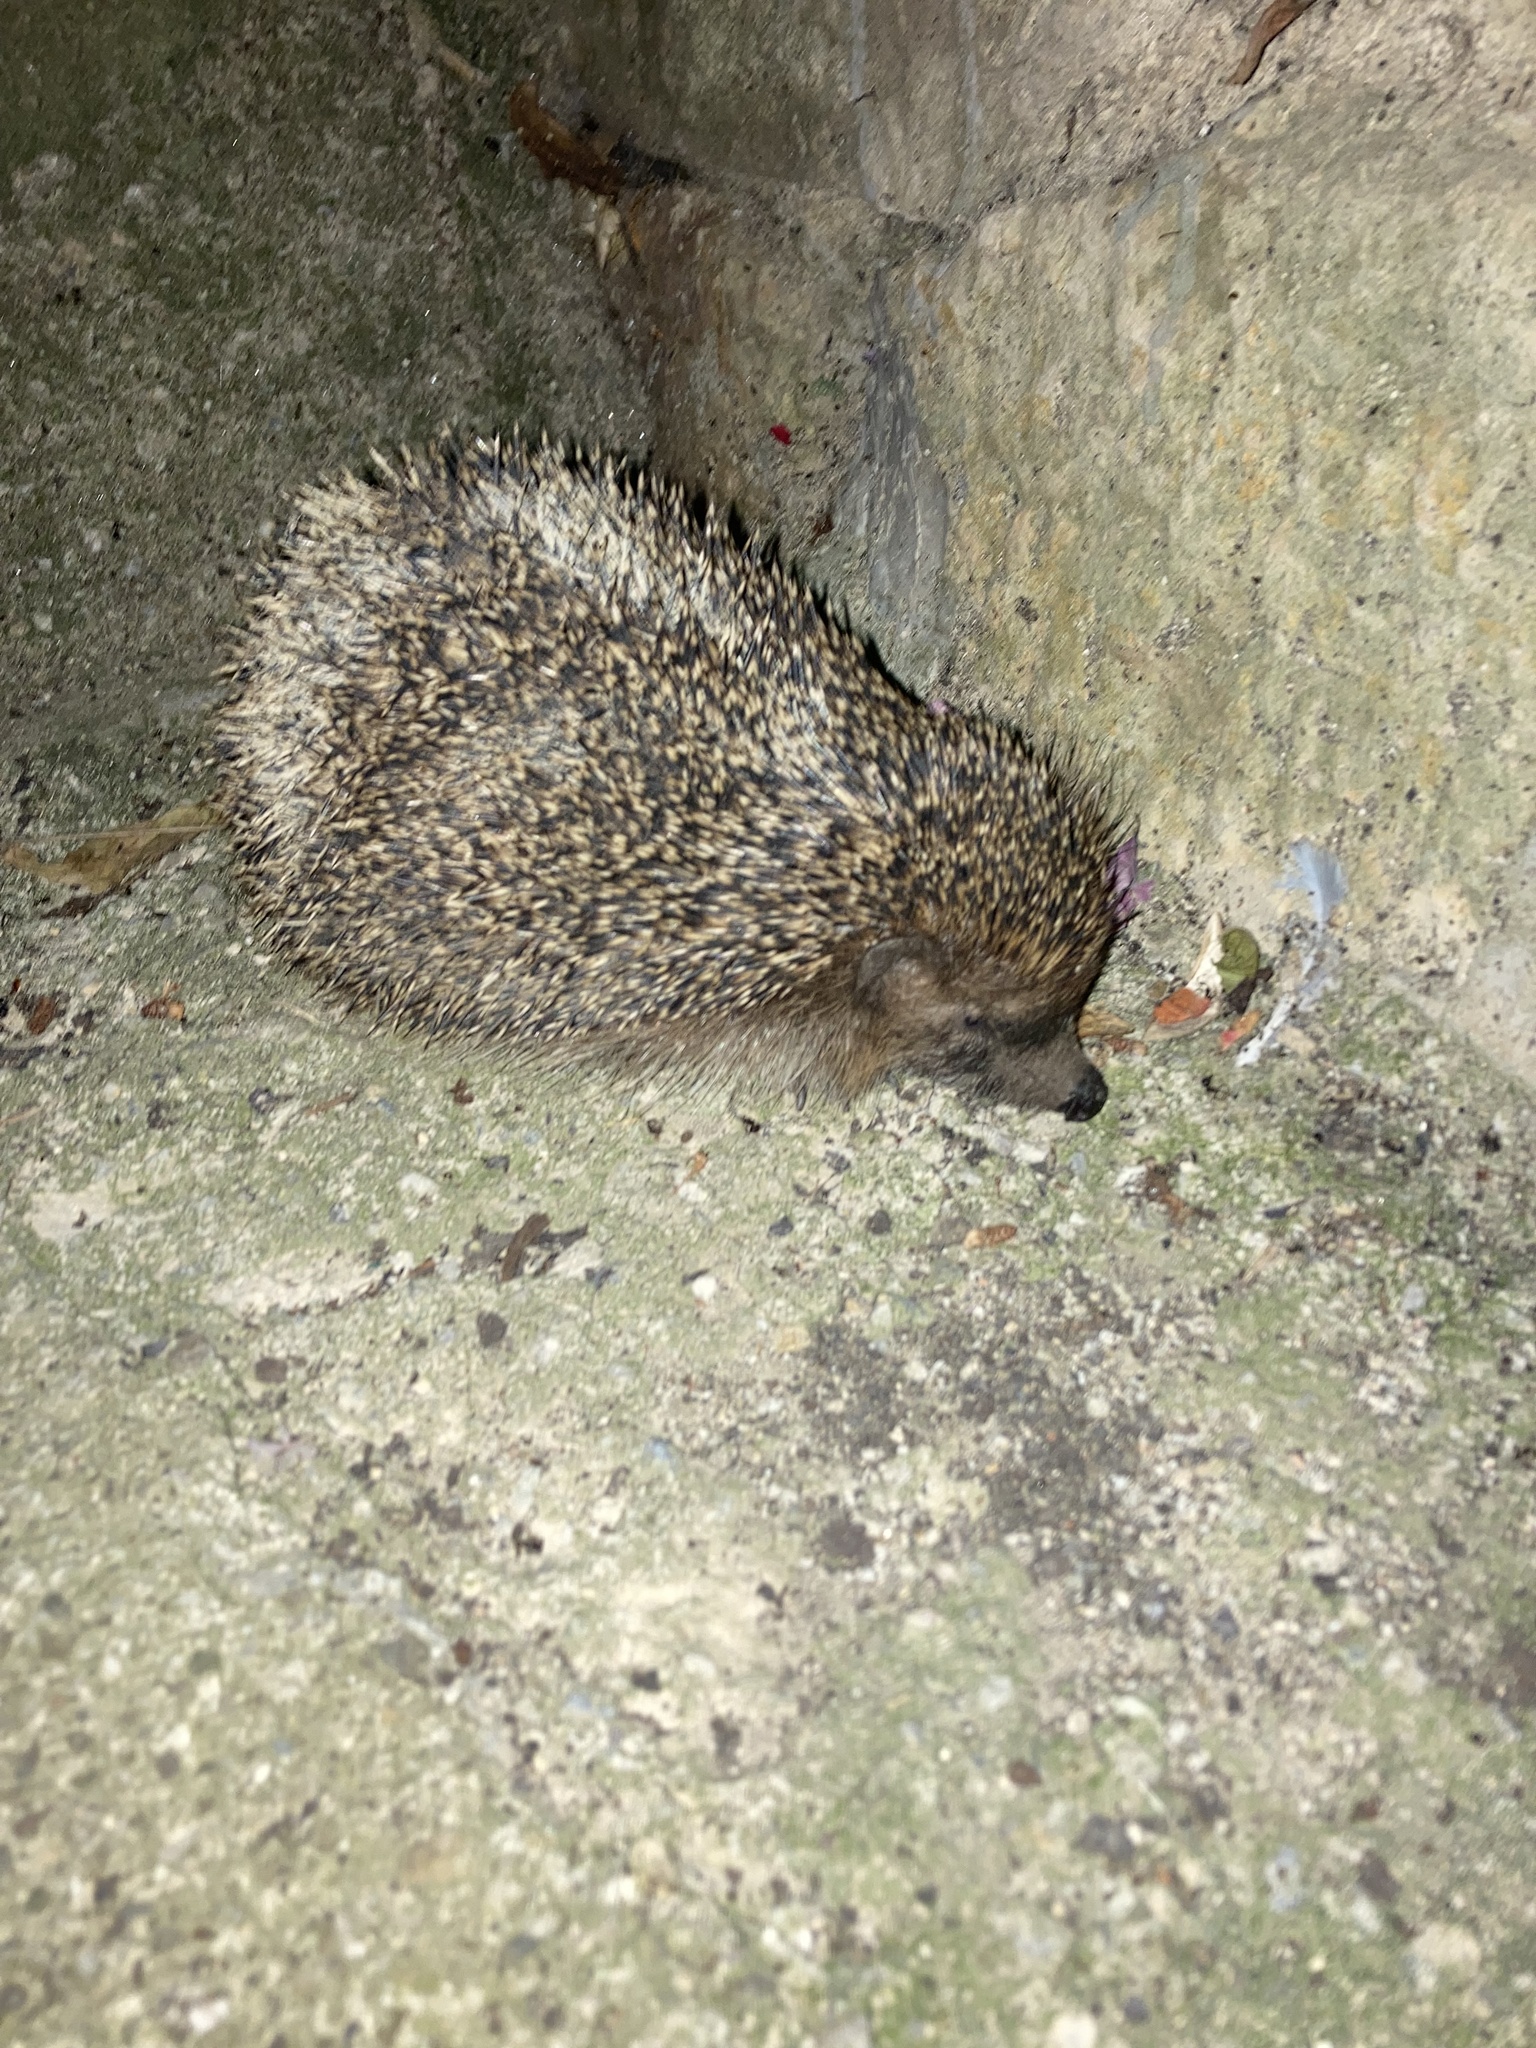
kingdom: Animalia
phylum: Chordata
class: Mammalia
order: Erinaceomorpha
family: Erinaceidae
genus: Erinaceus
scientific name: Erinaceus europaeus
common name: West european hedgehog
